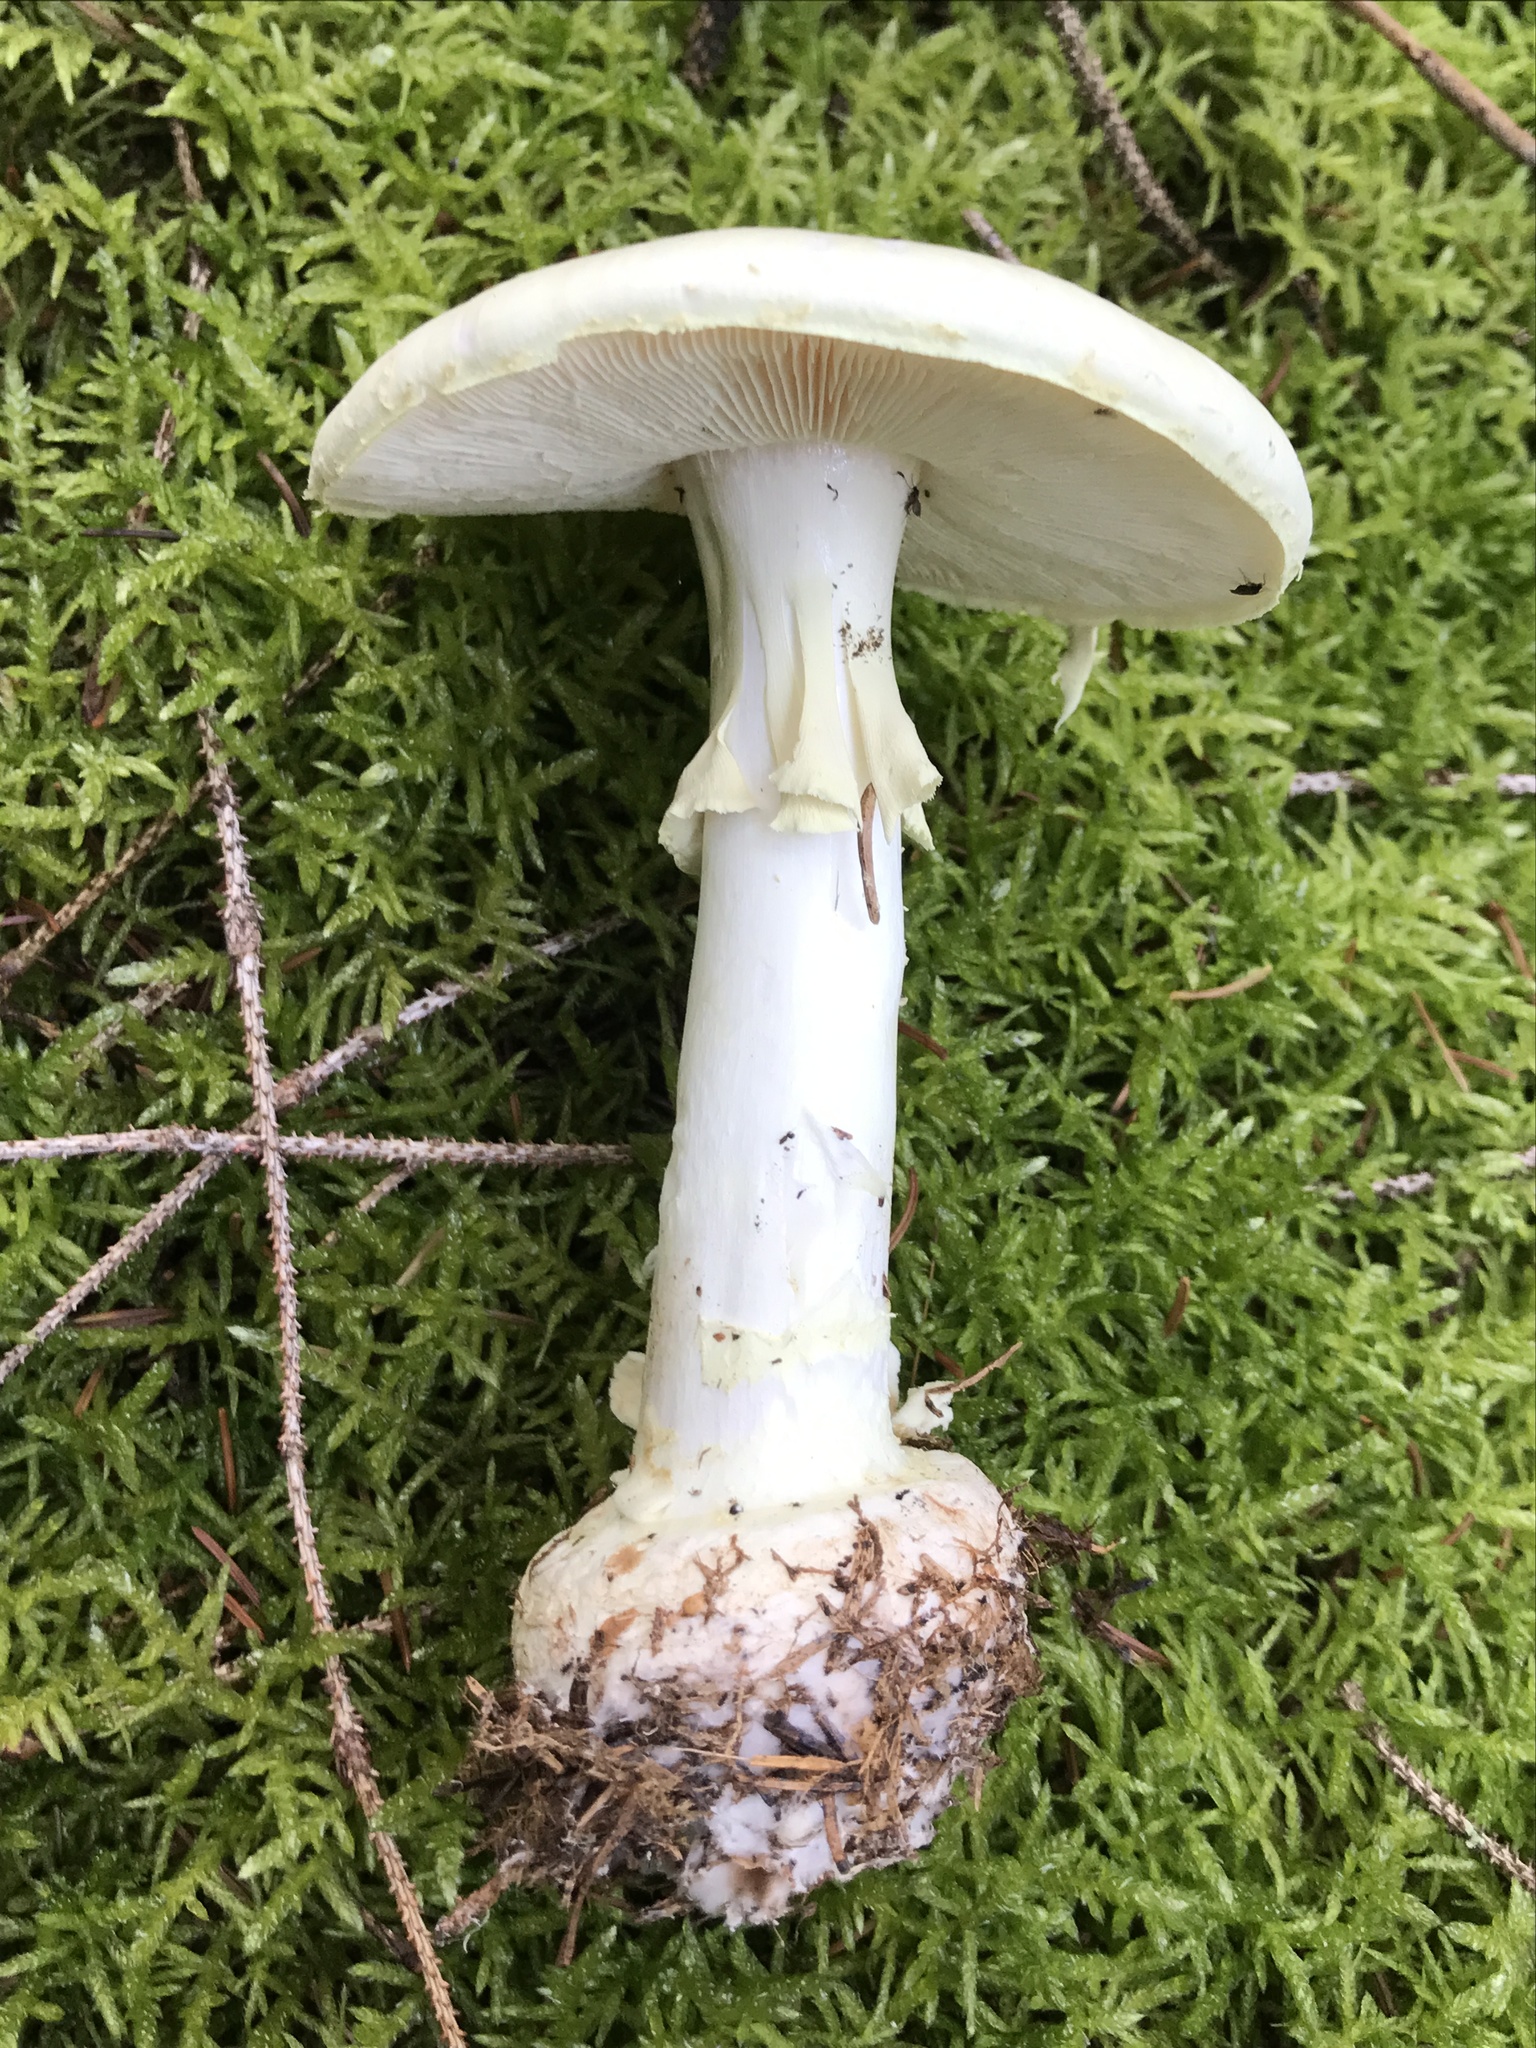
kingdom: Fungi
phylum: Basidiomycota
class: Agaricomycetes
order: Agaricales
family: Amanitaceae
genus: Amanita
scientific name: Amanita citrina
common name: False death-cap
